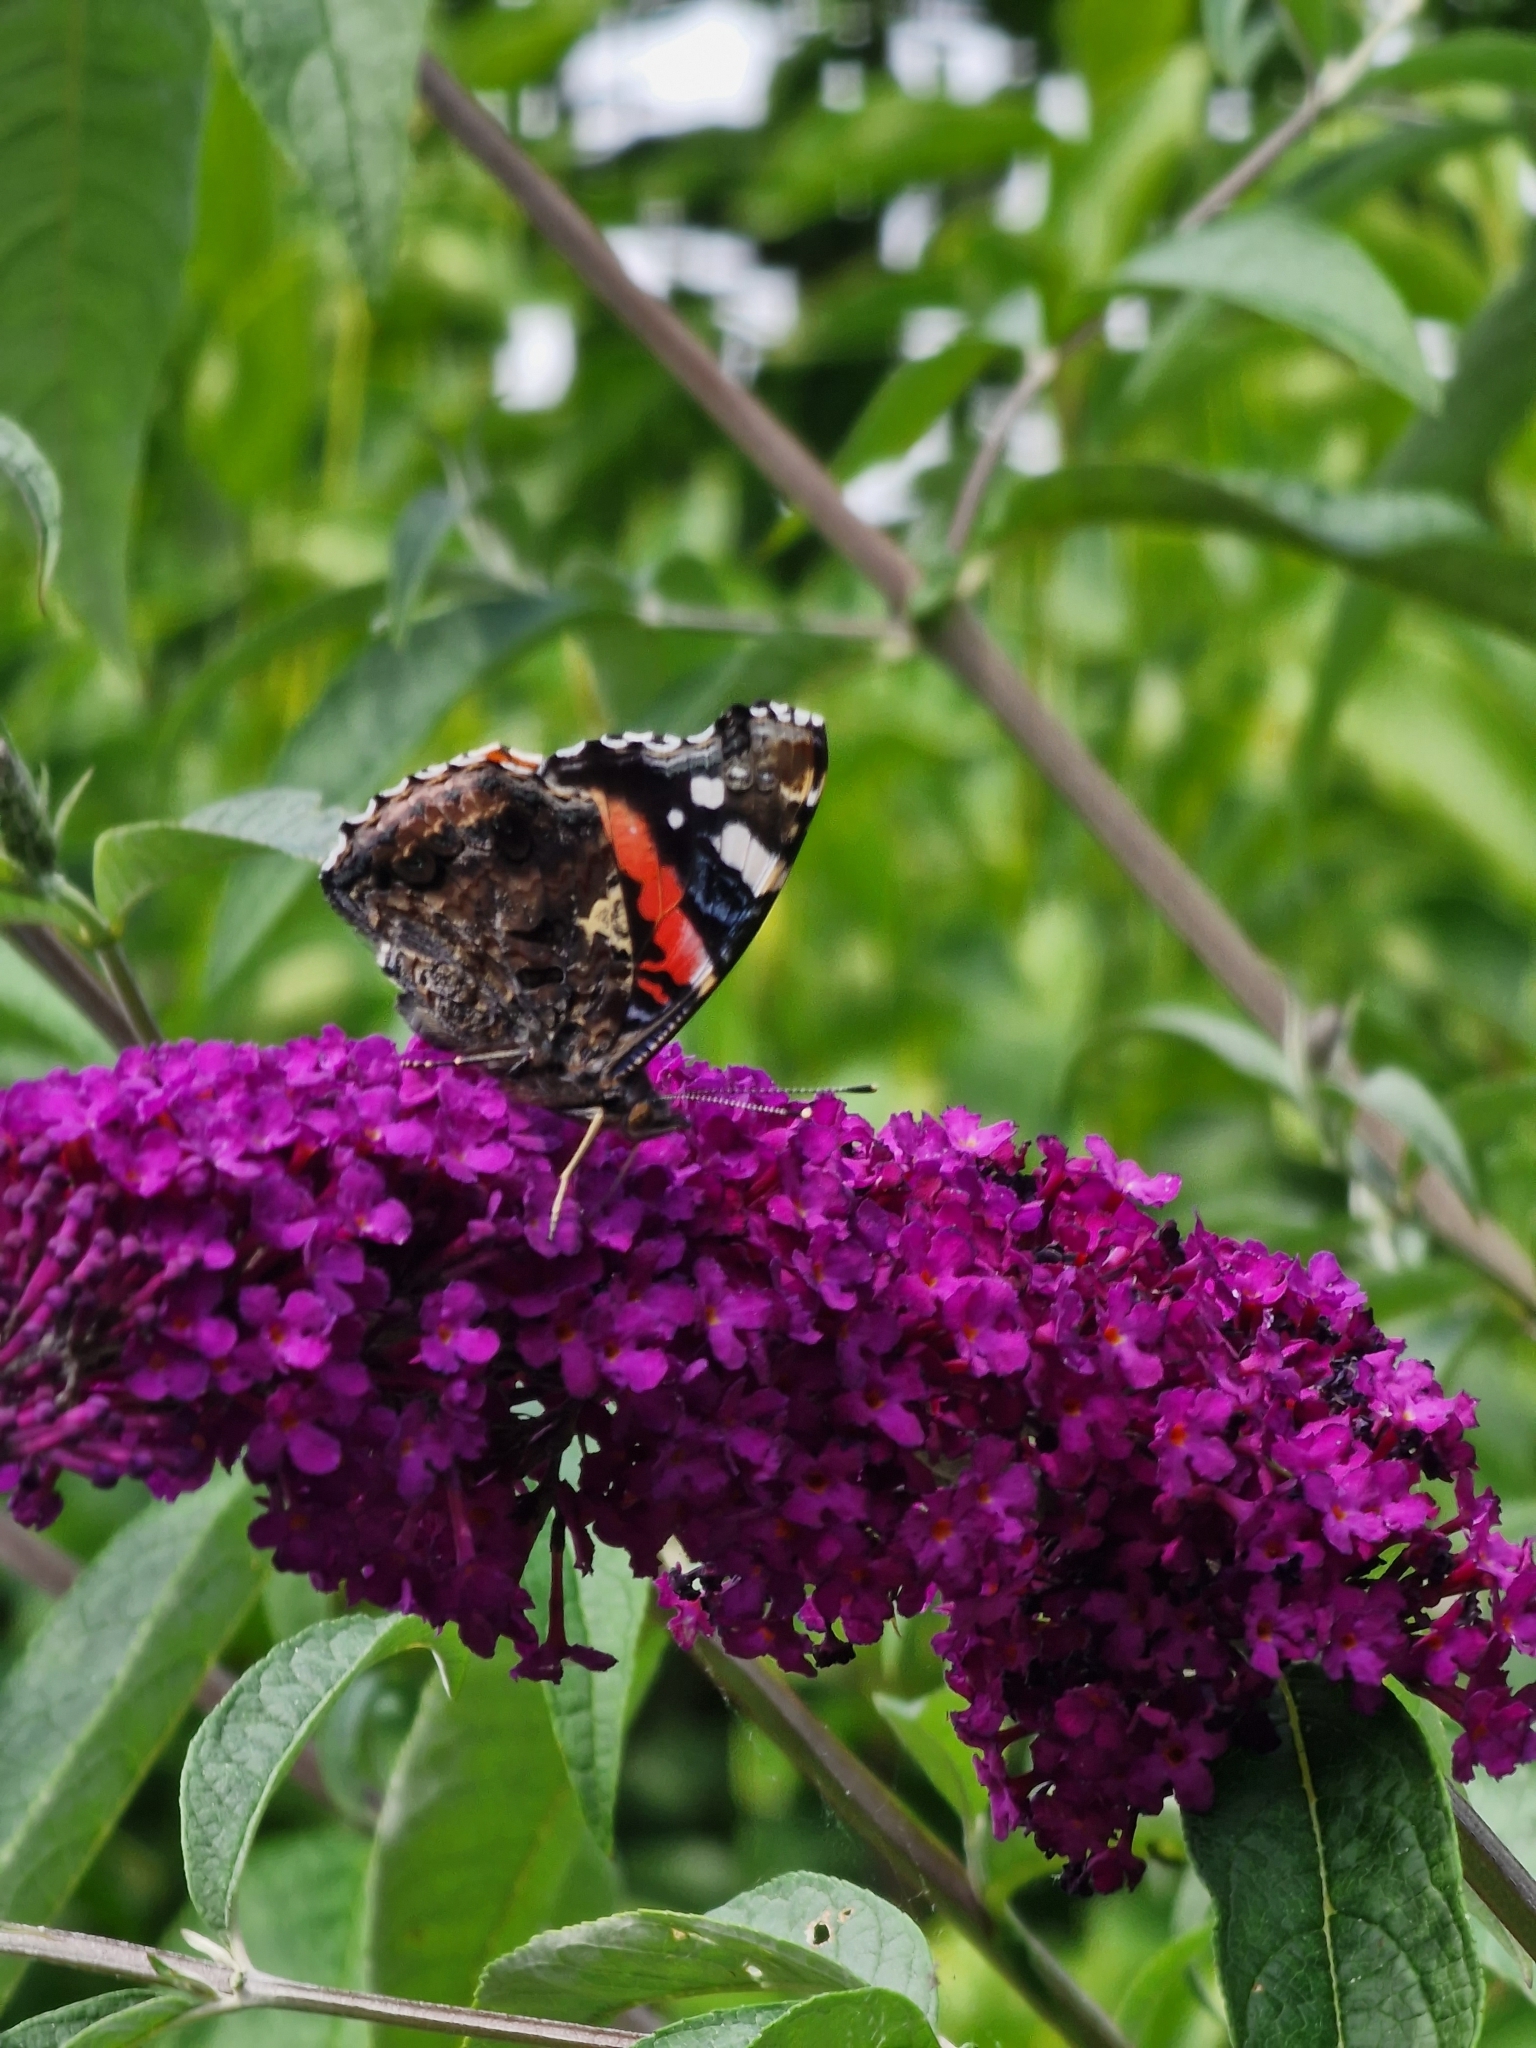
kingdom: Animalia
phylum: Arthropoda
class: Insecta
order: Lepidoptera
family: Nymphalidae
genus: Vanessa
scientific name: Vanessa atalanta
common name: Red admiral
